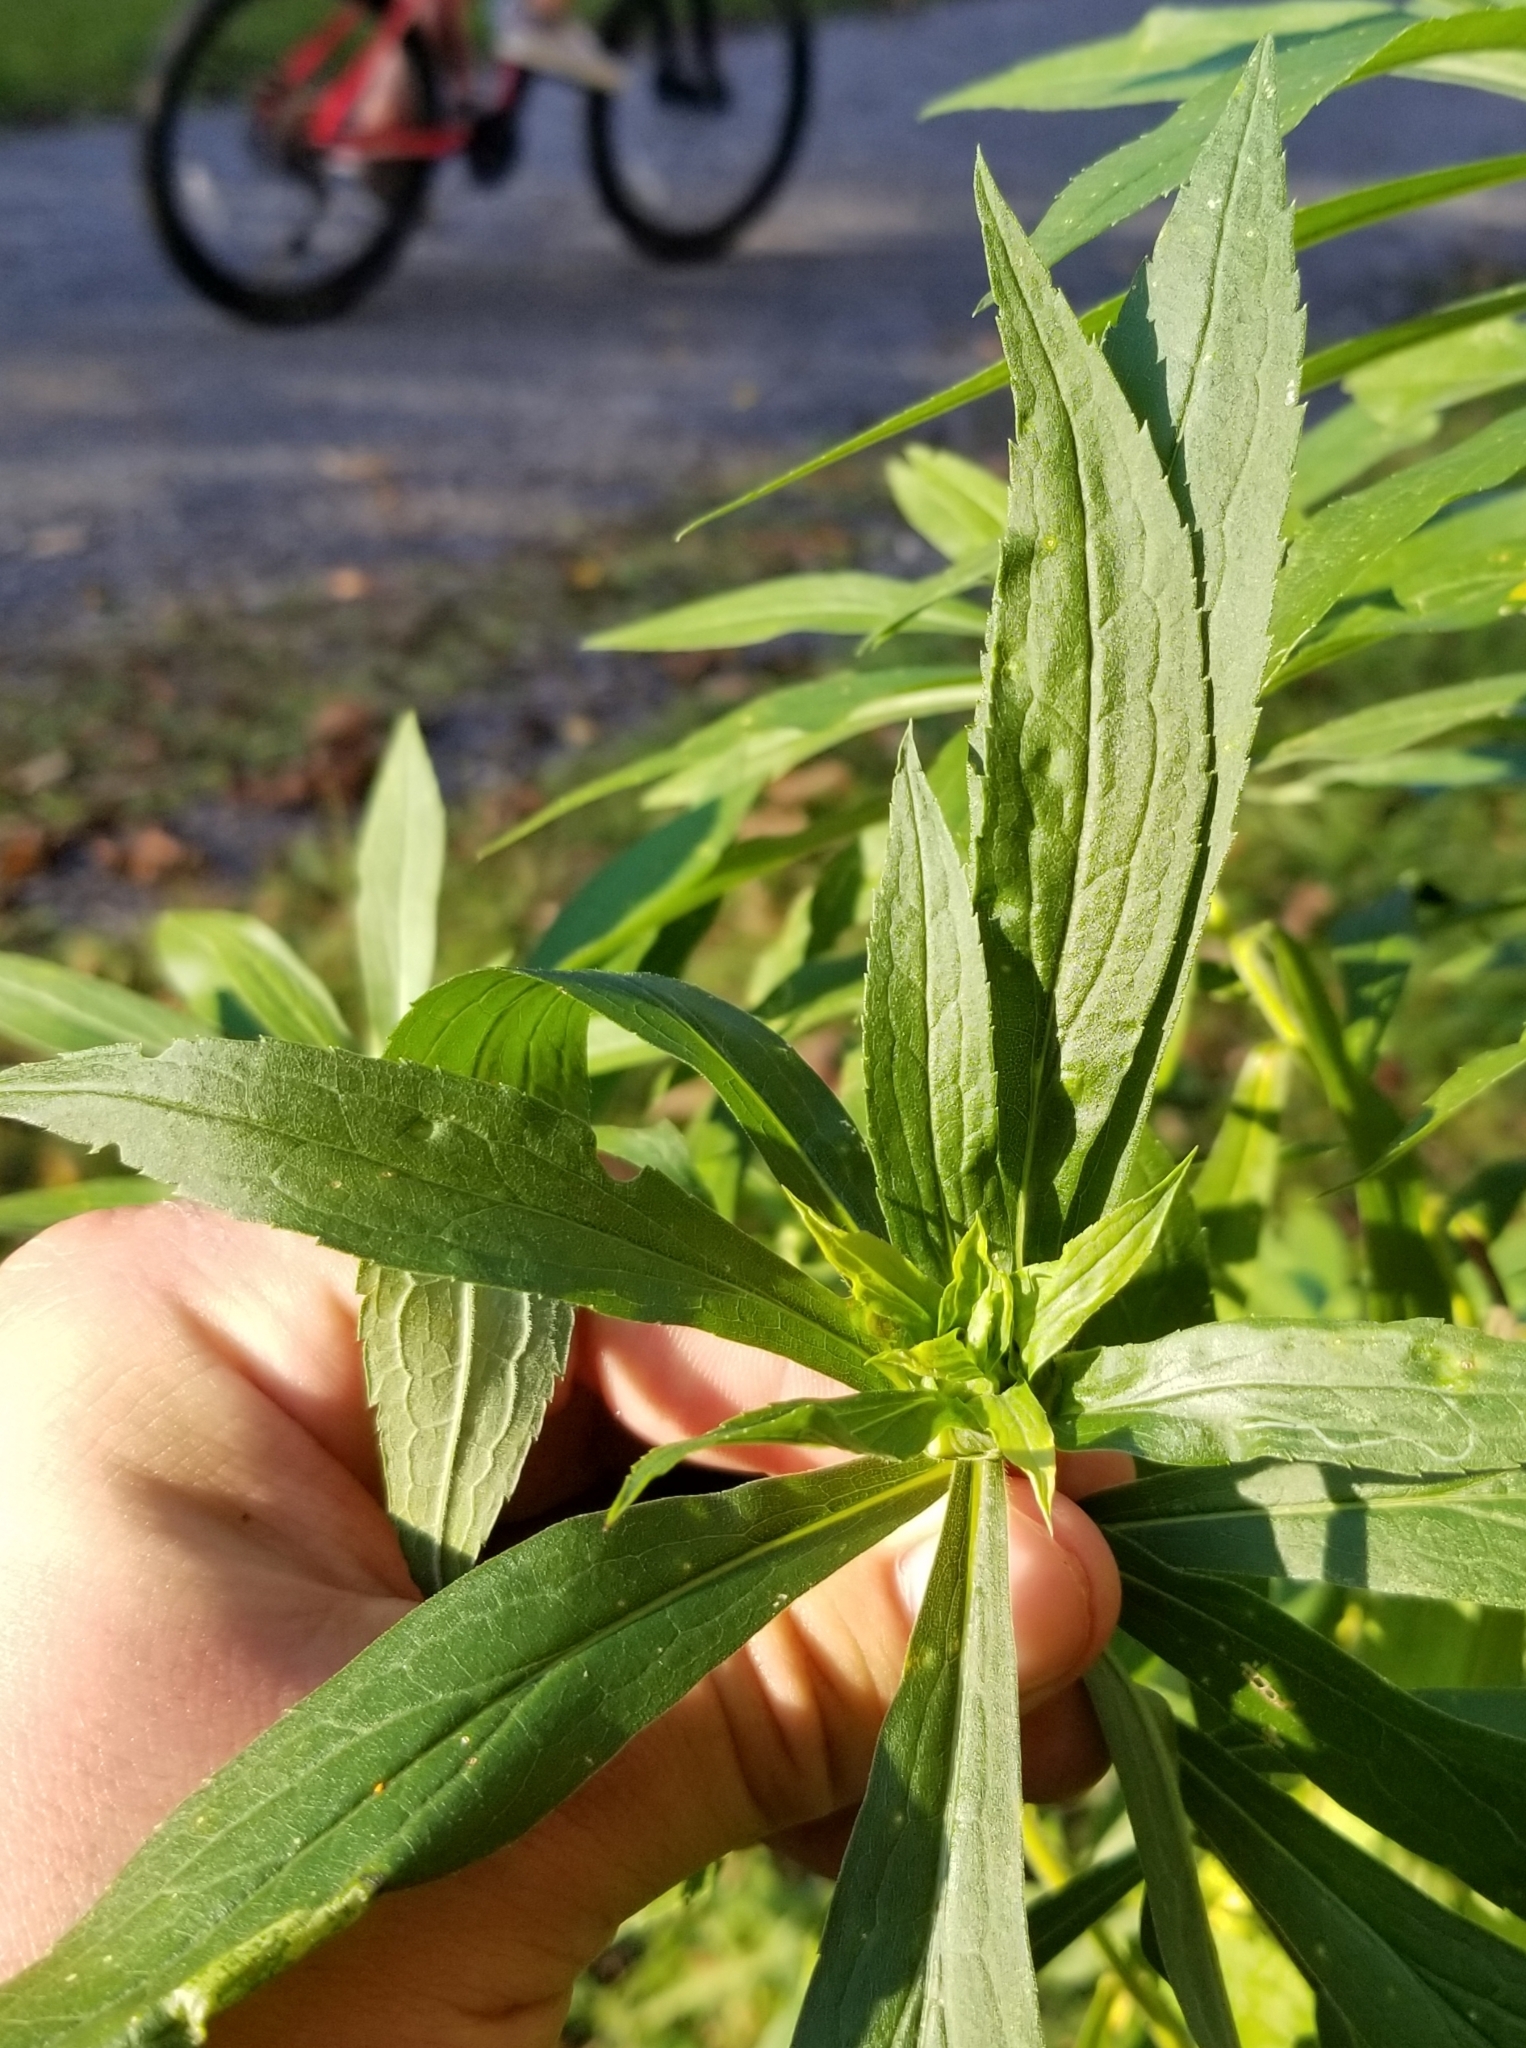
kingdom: Animalia
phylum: Arthropoda
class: Insecta
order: Diptera
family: Cecidomyiidae
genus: Dasineura
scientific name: Dasineura folliculi
